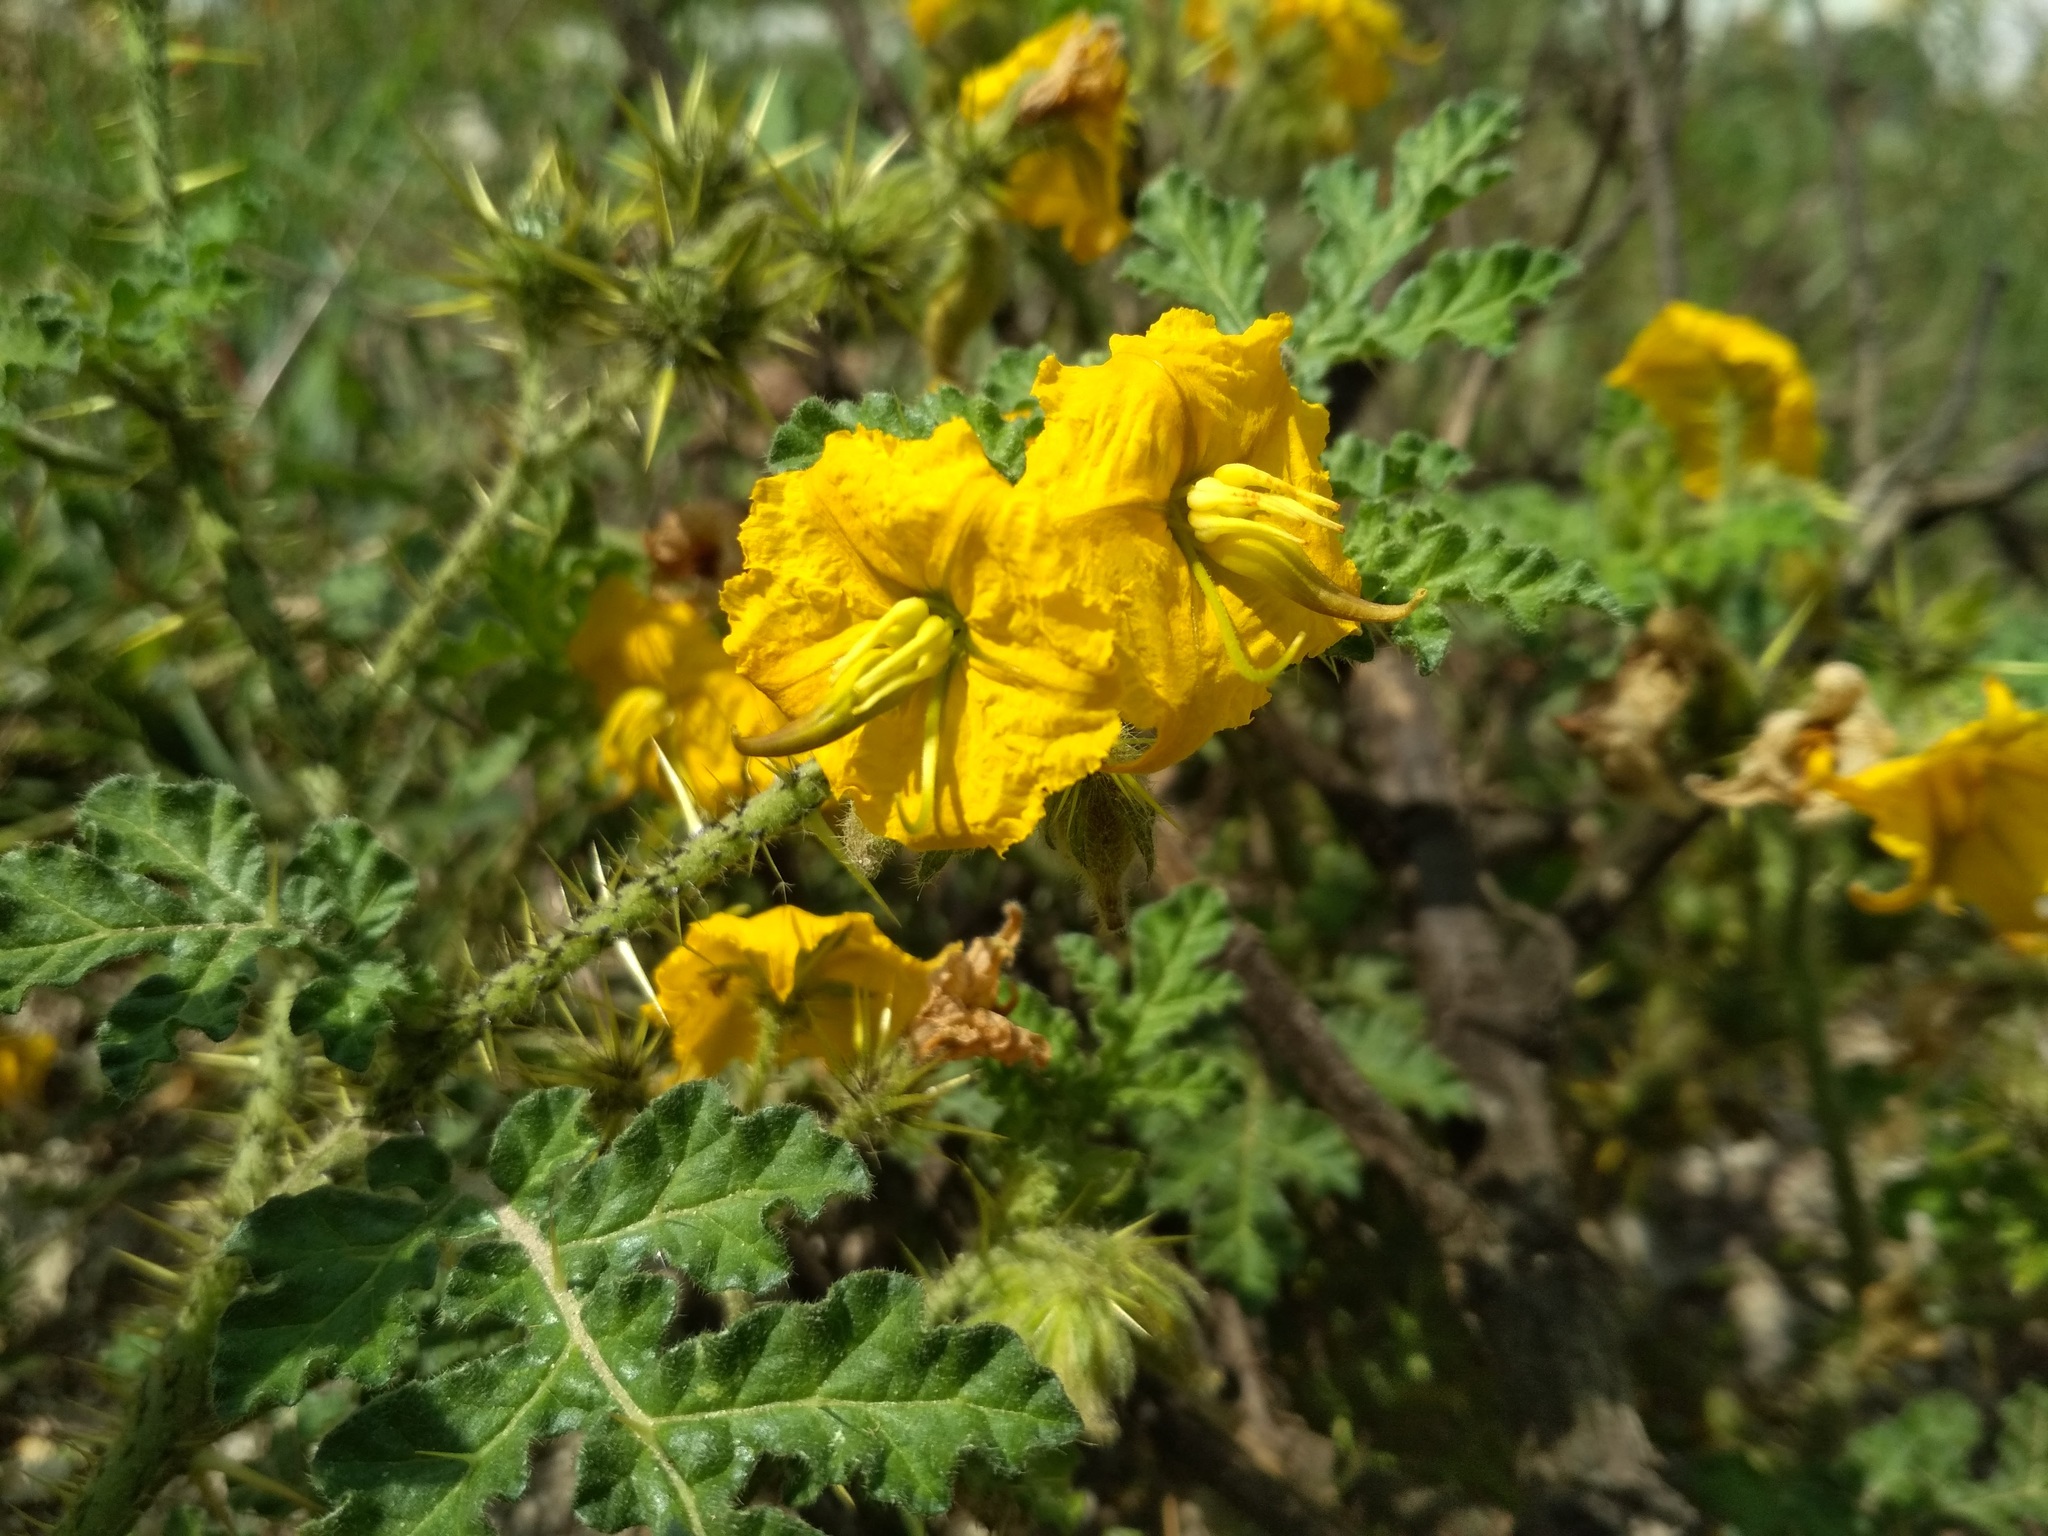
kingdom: Plantae
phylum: Tracheophyta
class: Magnoliopsida
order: Solanales
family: Solanaceae
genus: Solanum
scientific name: Solanum angustifolium
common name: Buffalobur nightshade
